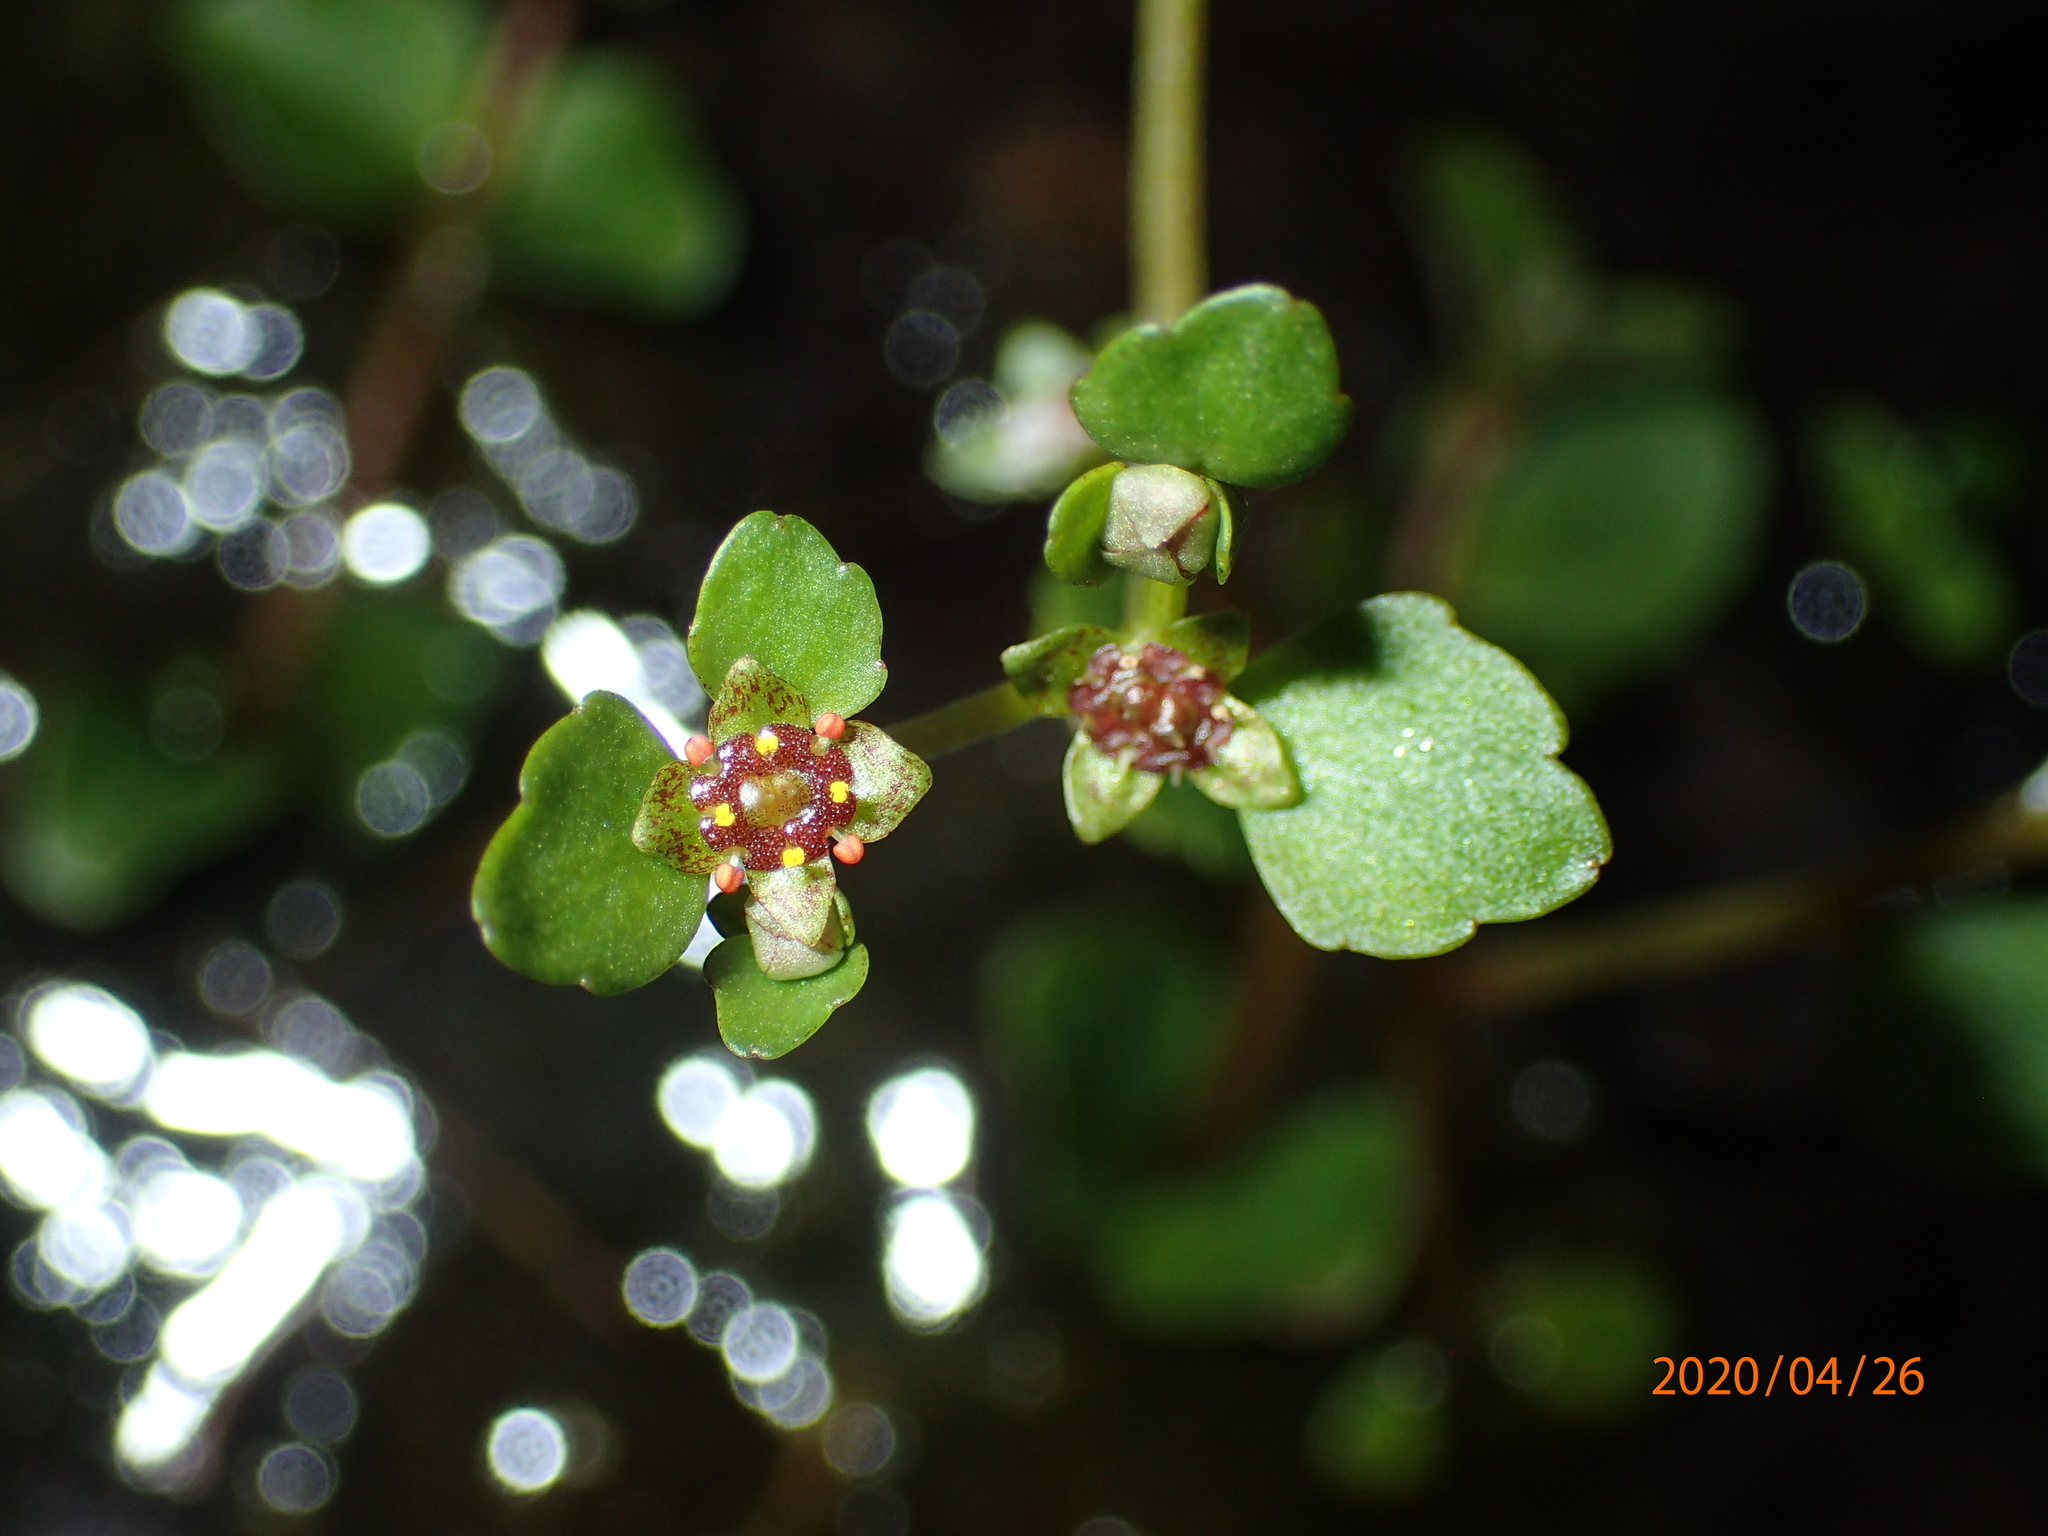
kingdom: Plantae
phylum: Tracheophyta
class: Magnoliopsida
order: Saxifragales
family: Saxifragaceae
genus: Chrysosplenium
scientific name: Chrysosplenium americanum
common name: American golden-saxifrage
